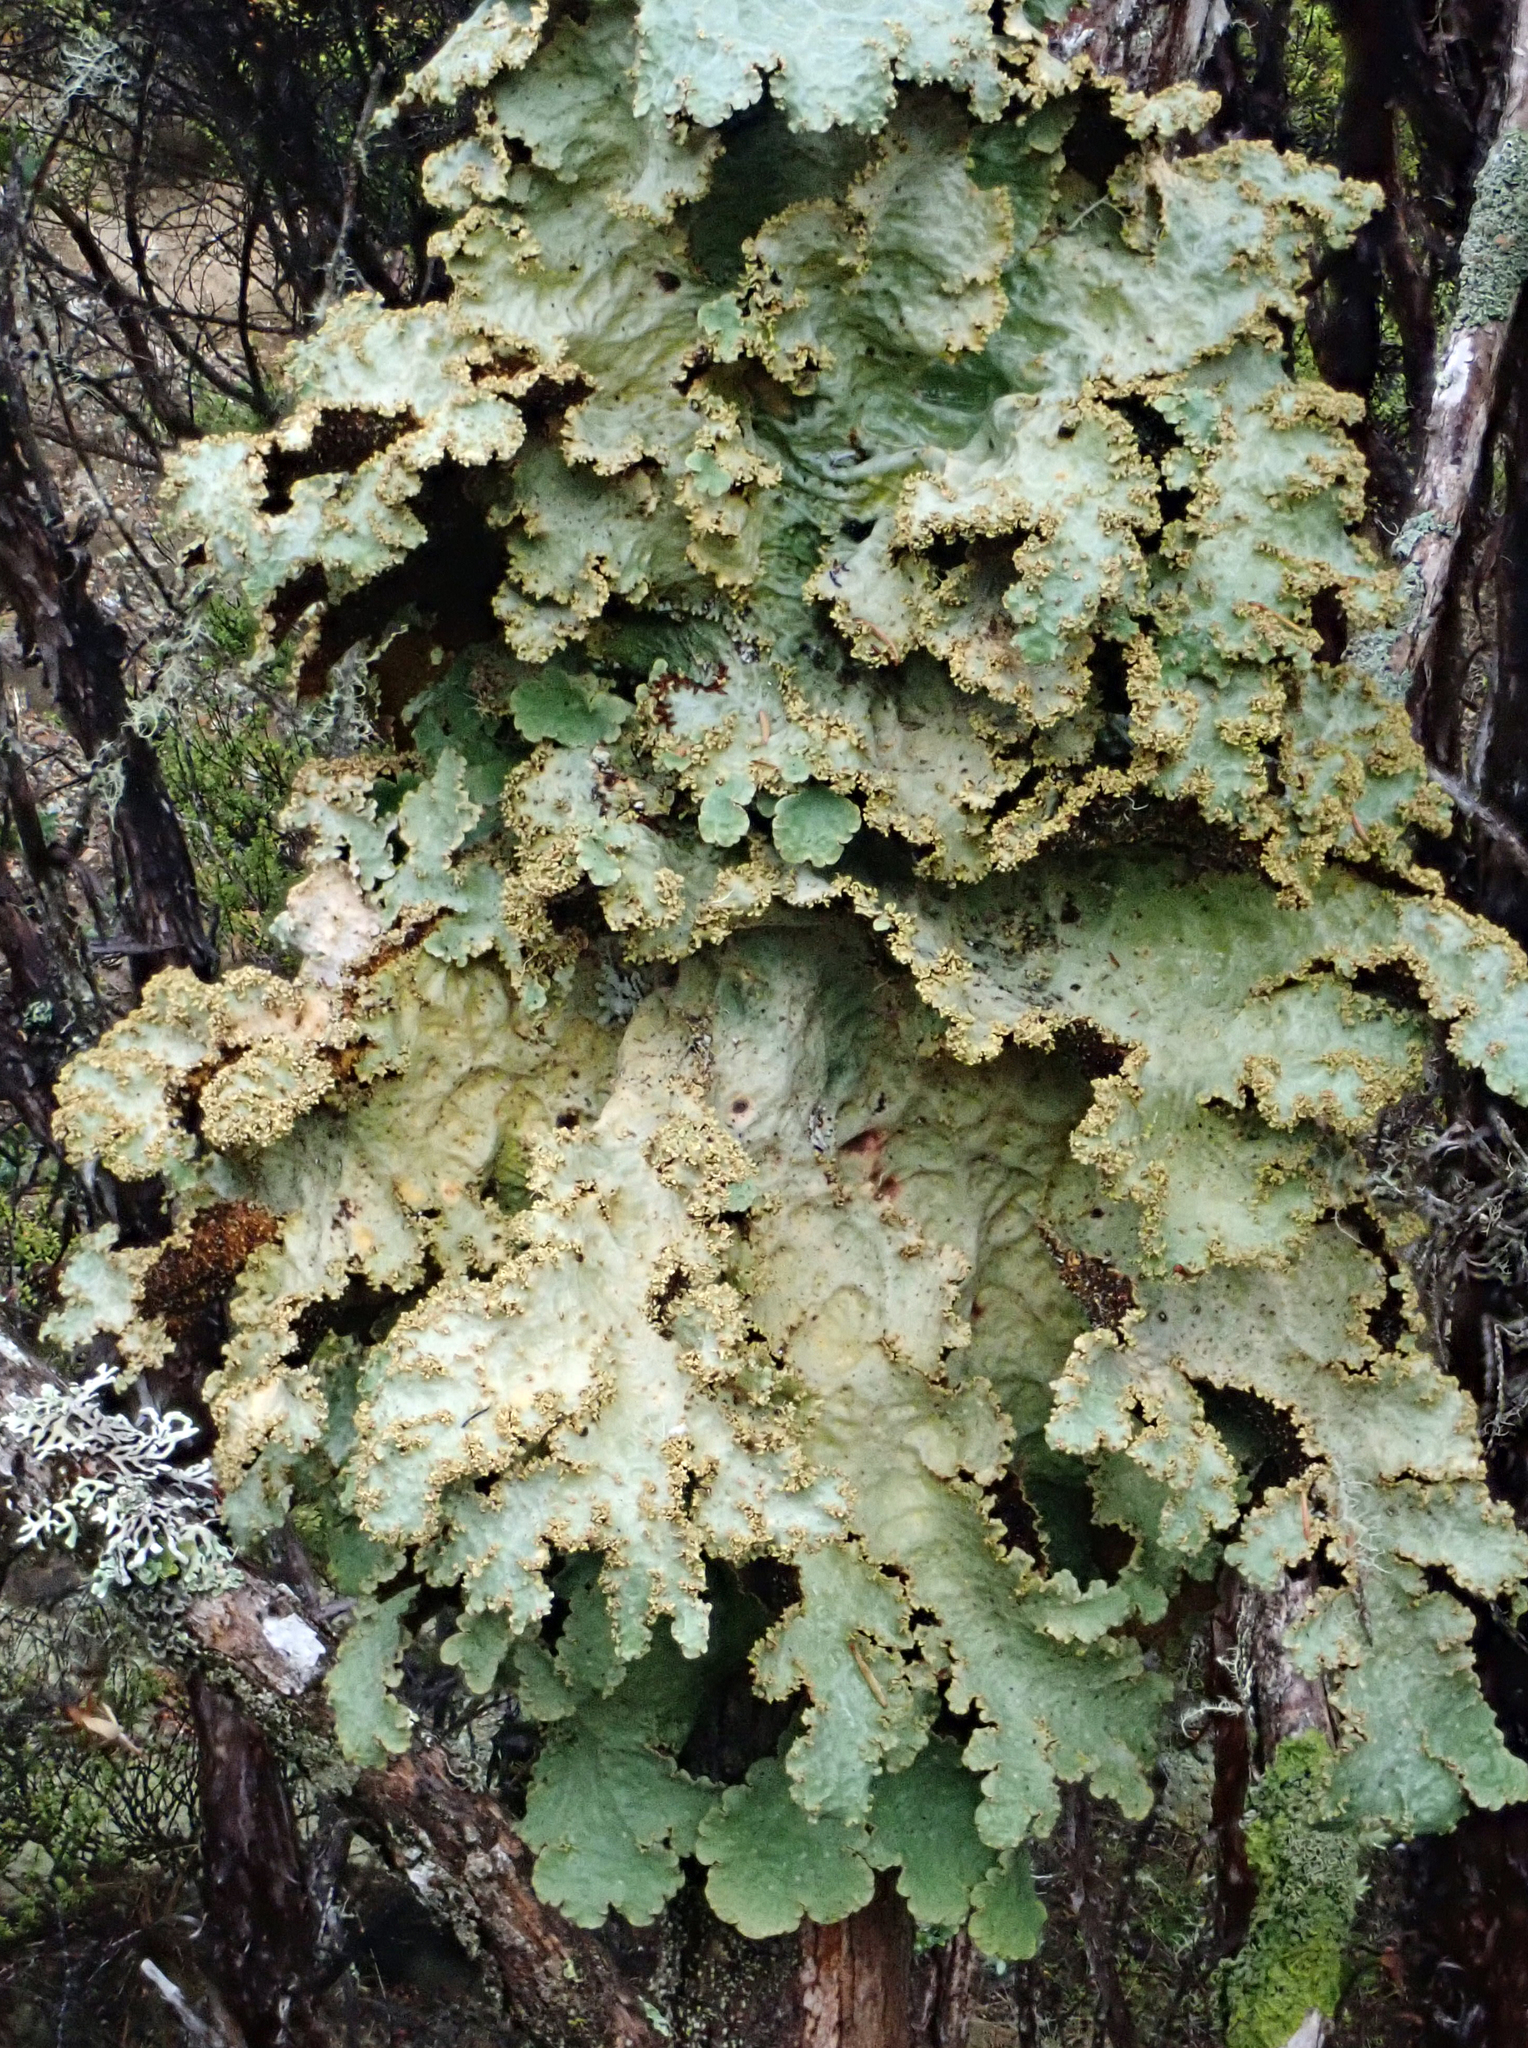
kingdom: Fungi
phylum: Ascomycota
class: Lecanoromycetes
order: Peltigerales
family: Lobariaceae
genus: Yarrumia
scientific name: Yarrumia coronata
